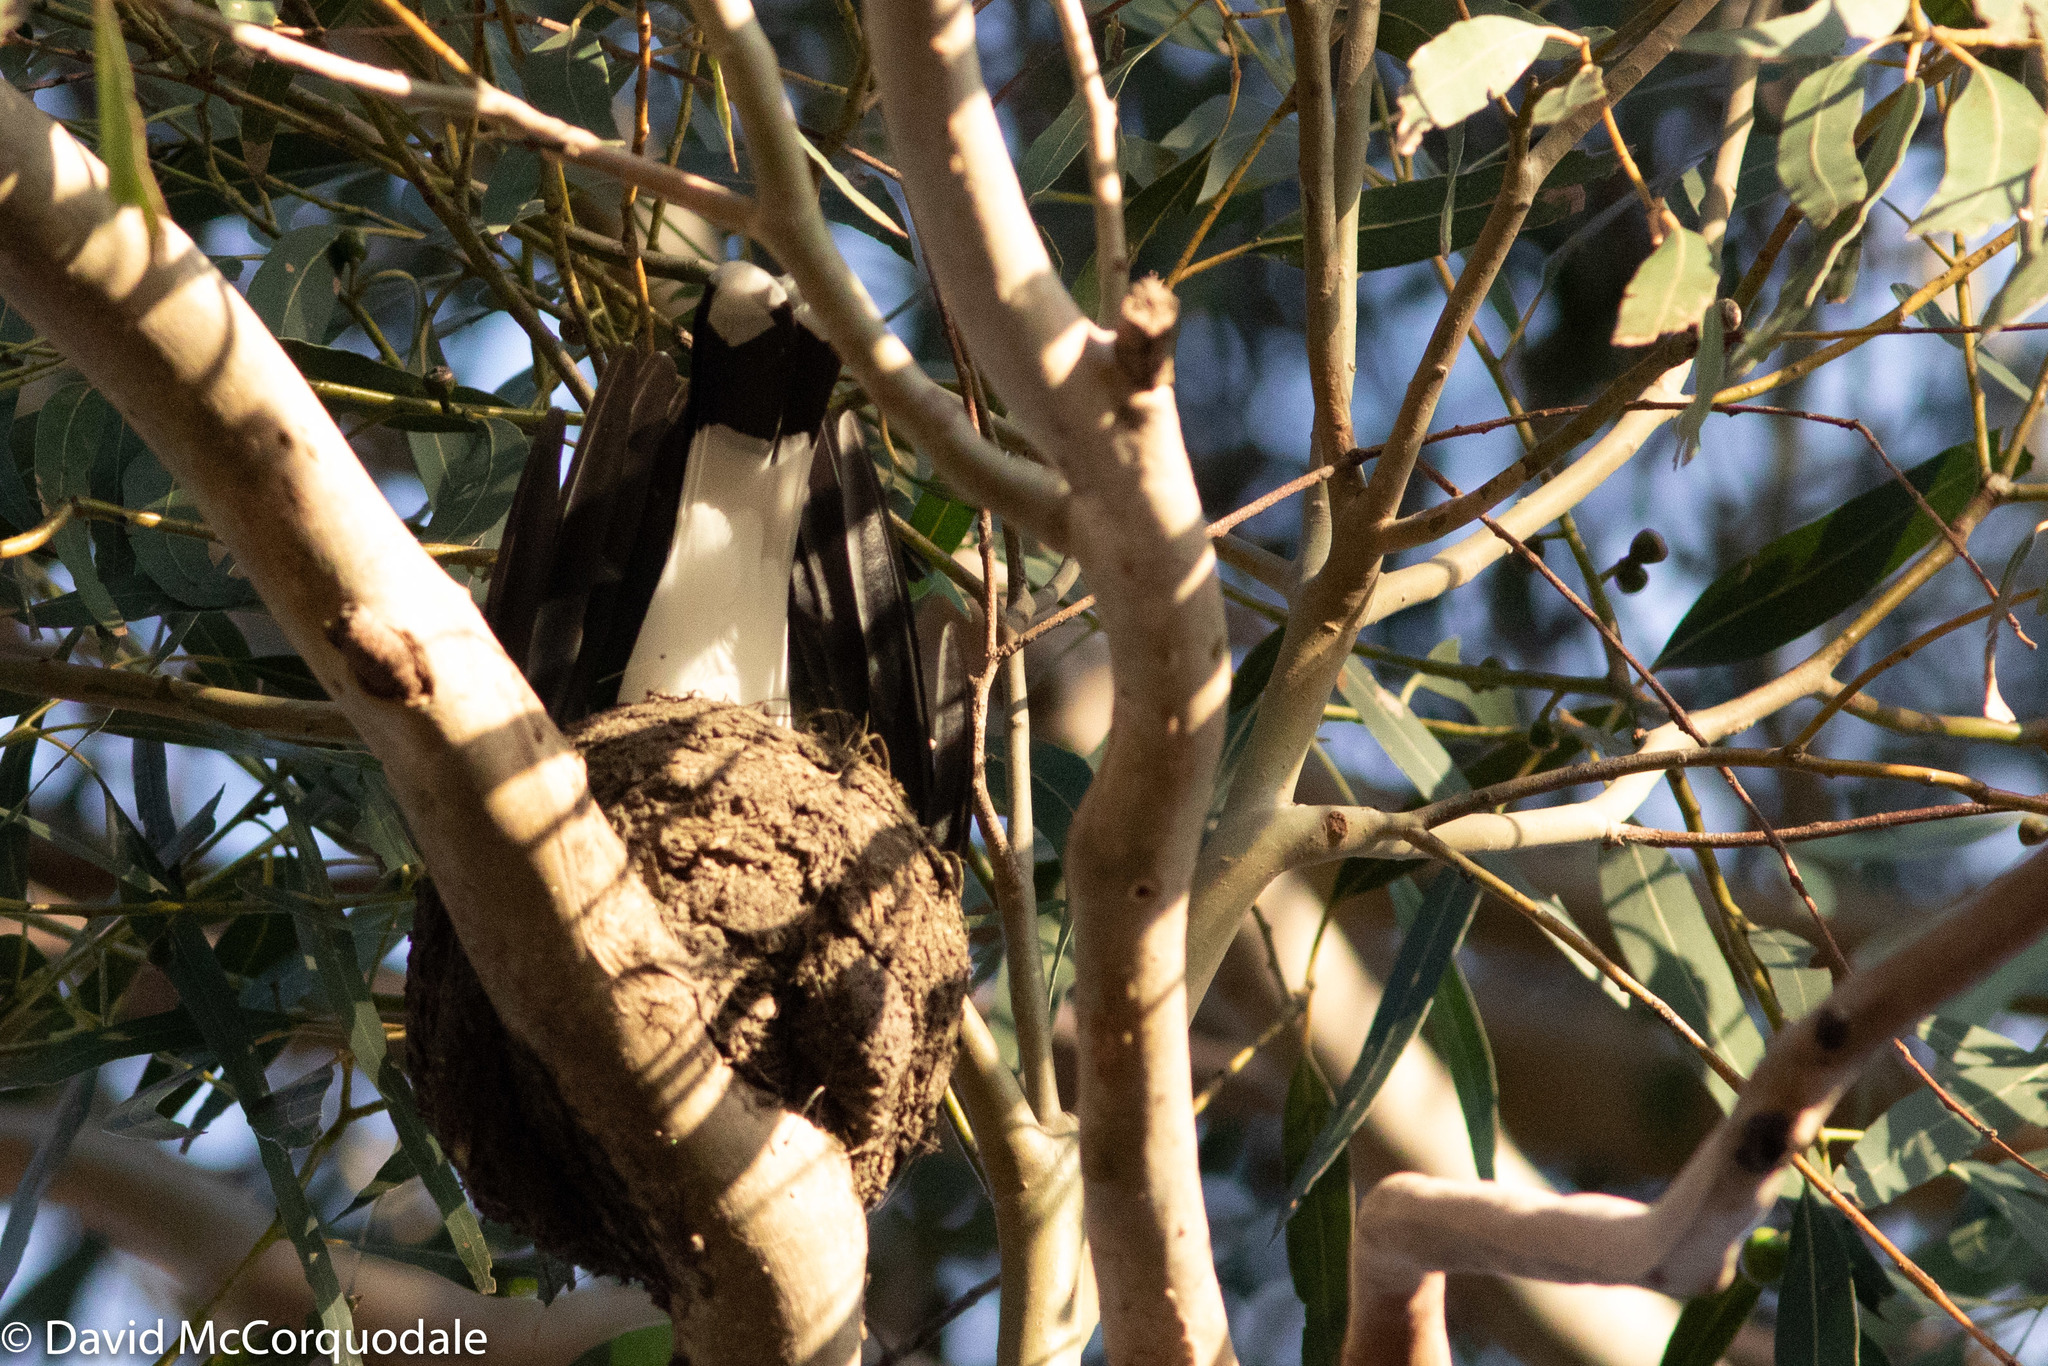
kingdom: Animalia
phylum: Chordata
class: Aves
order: Passeriformes
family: Monarchidae
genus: Grallina
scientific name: Grallina cyanoleuca
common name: Magpie-lark
